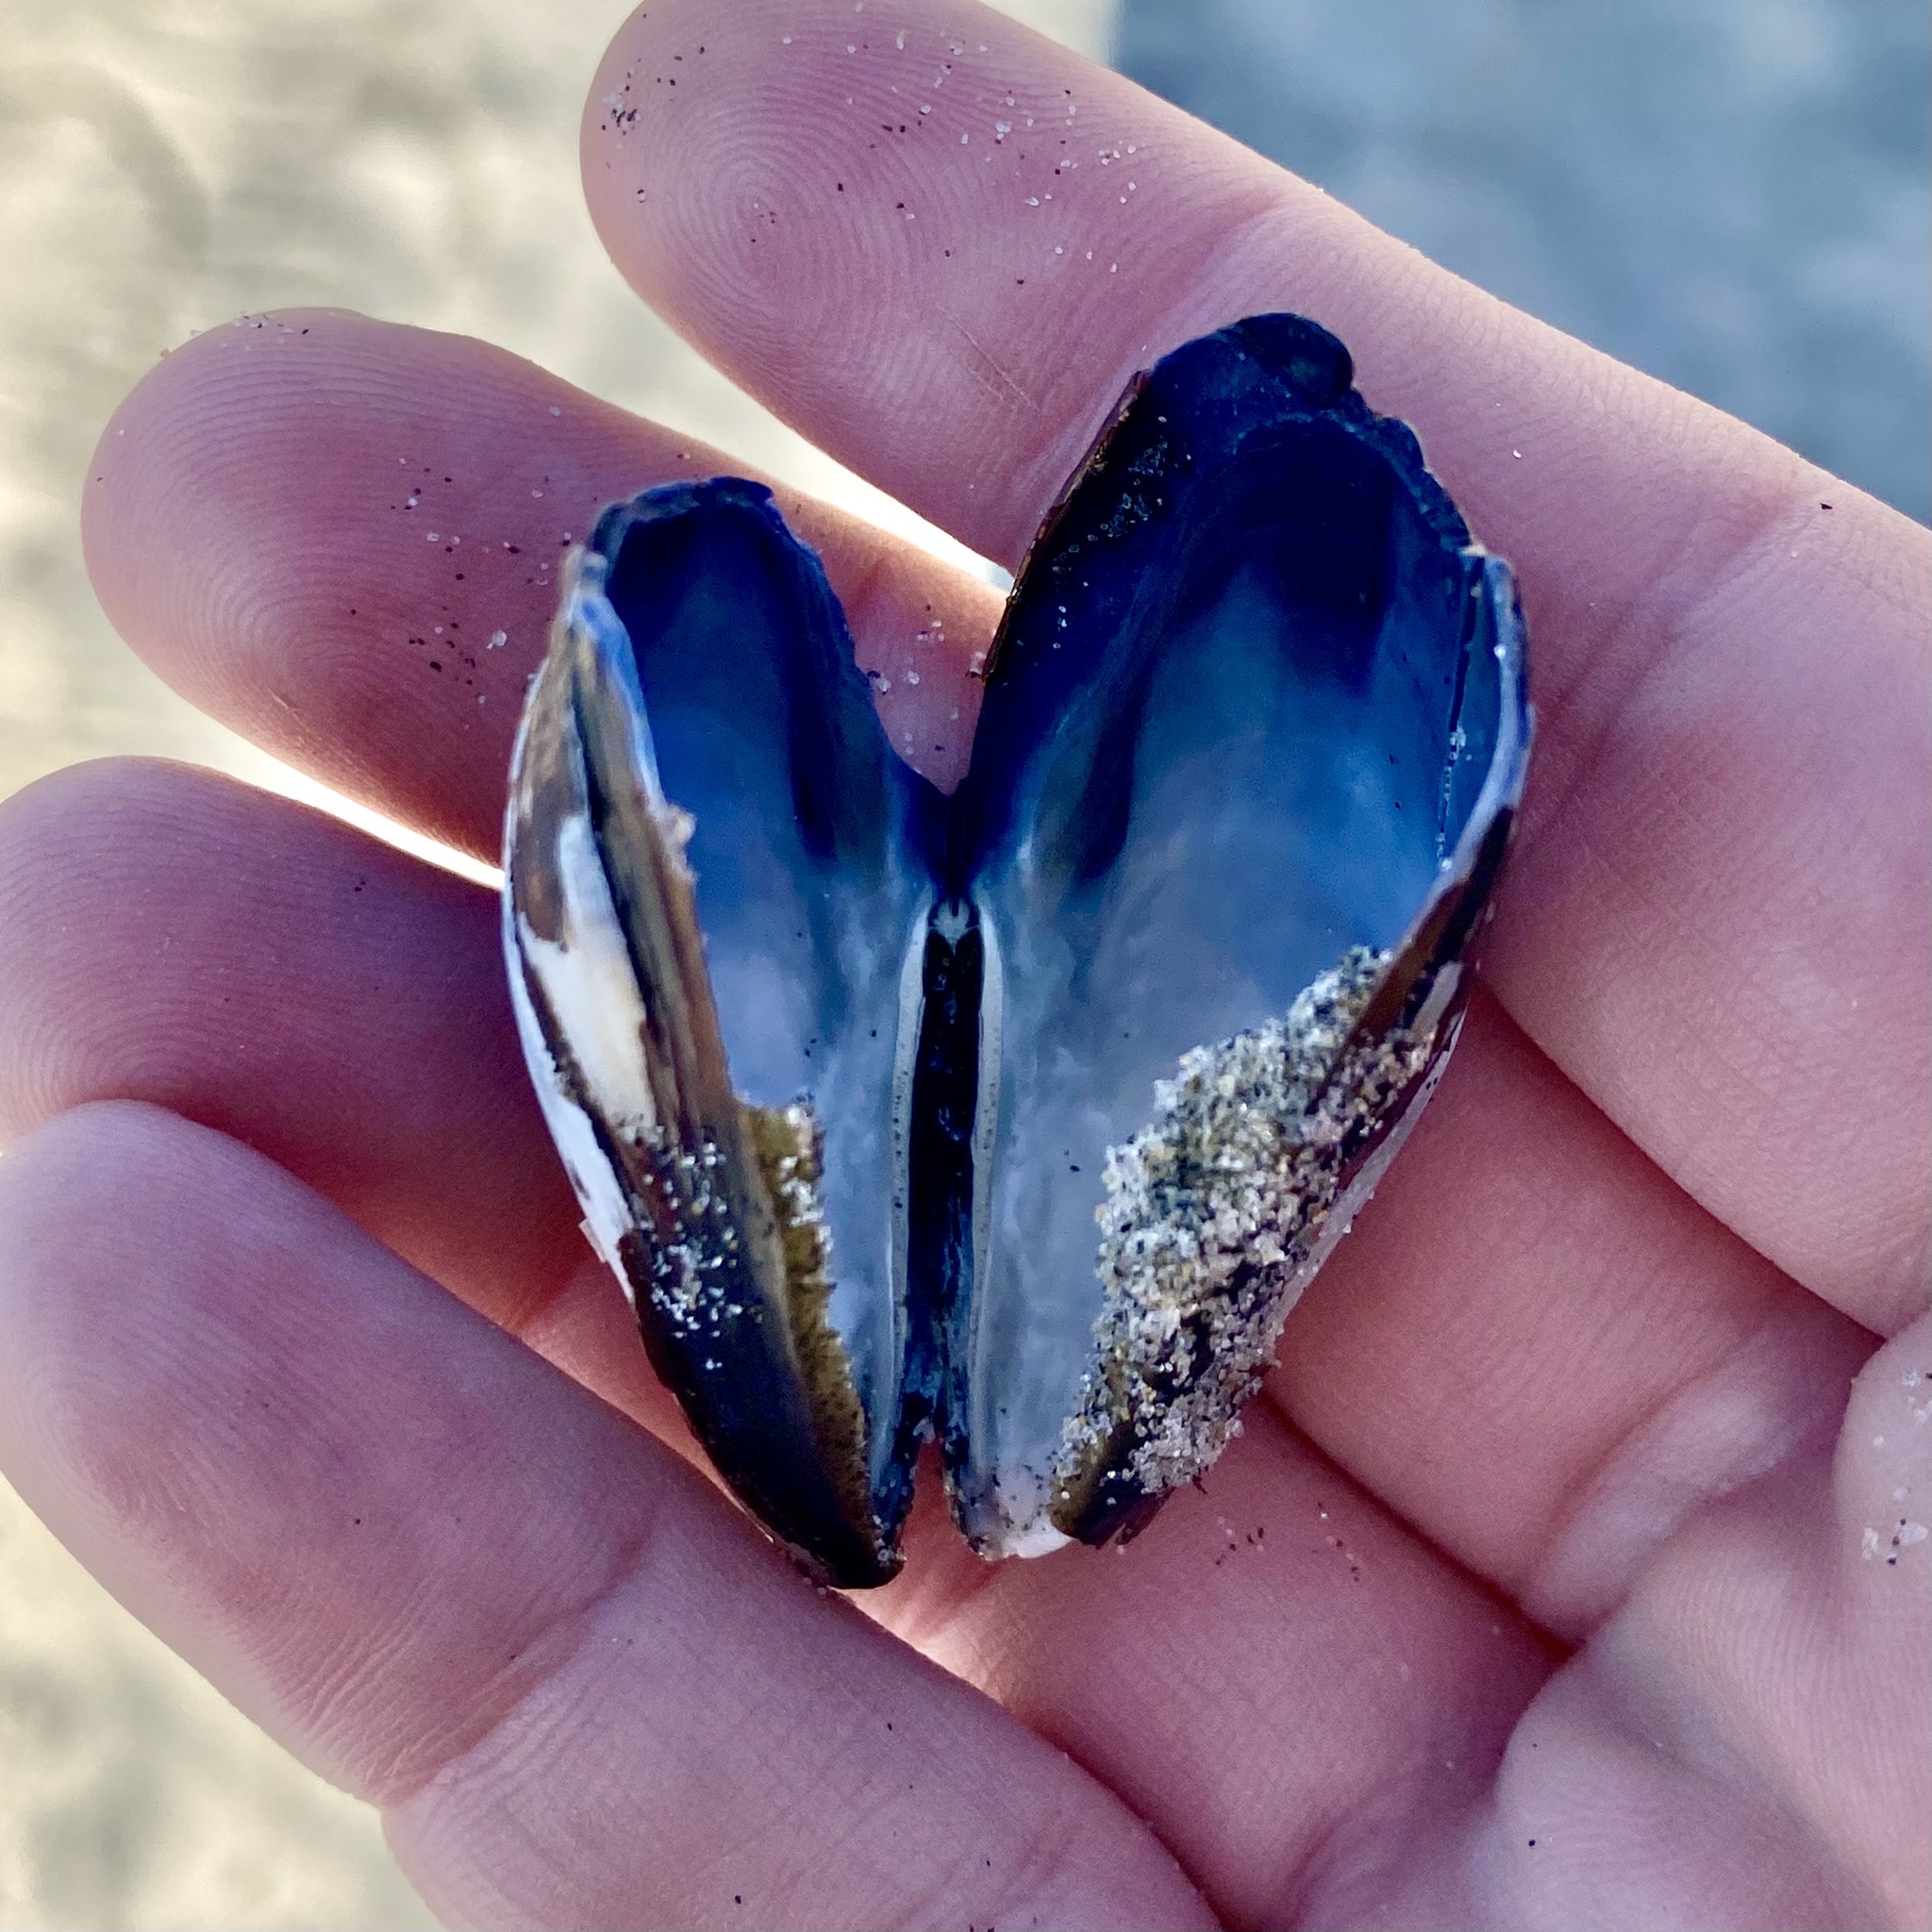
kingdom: Animalia
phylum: Mollusca
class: Bivalvia
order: Mytilida
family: Mytilidae
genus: Mytilus
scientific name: Mytilus californianus
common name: California mussel
